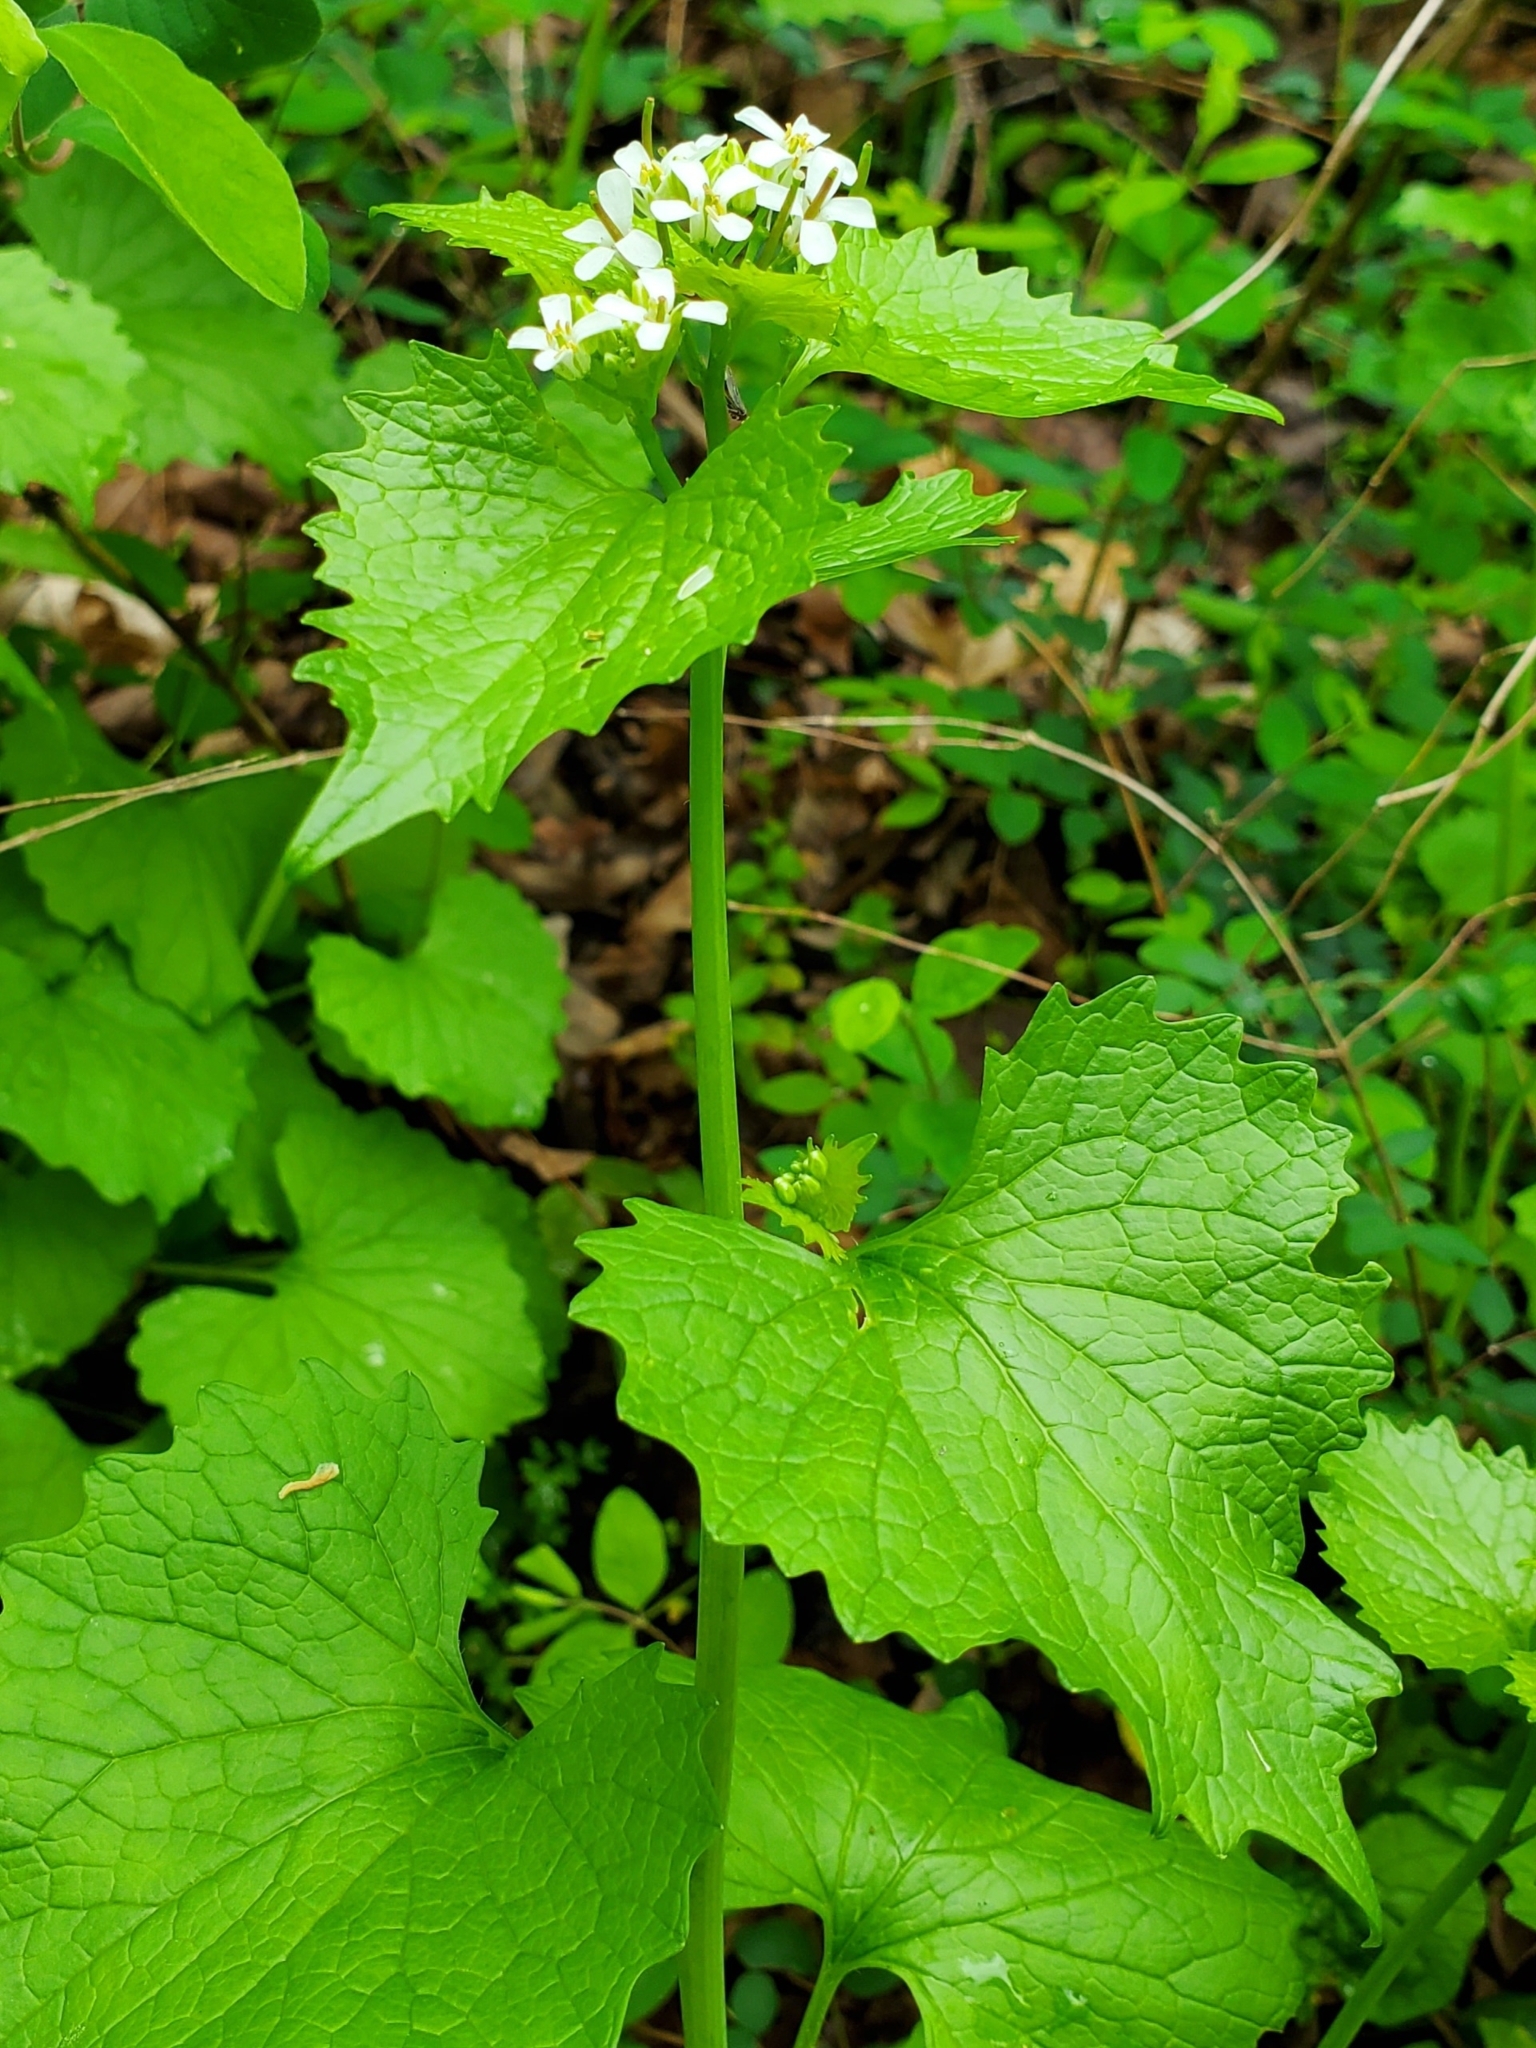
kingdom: Plantae
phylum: Tracheophyta
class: Magnoliopsida
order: Brassicales
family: Brassicaceae
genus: Alliaria
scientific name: Alliaria petiolata
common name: Garlic mustard
